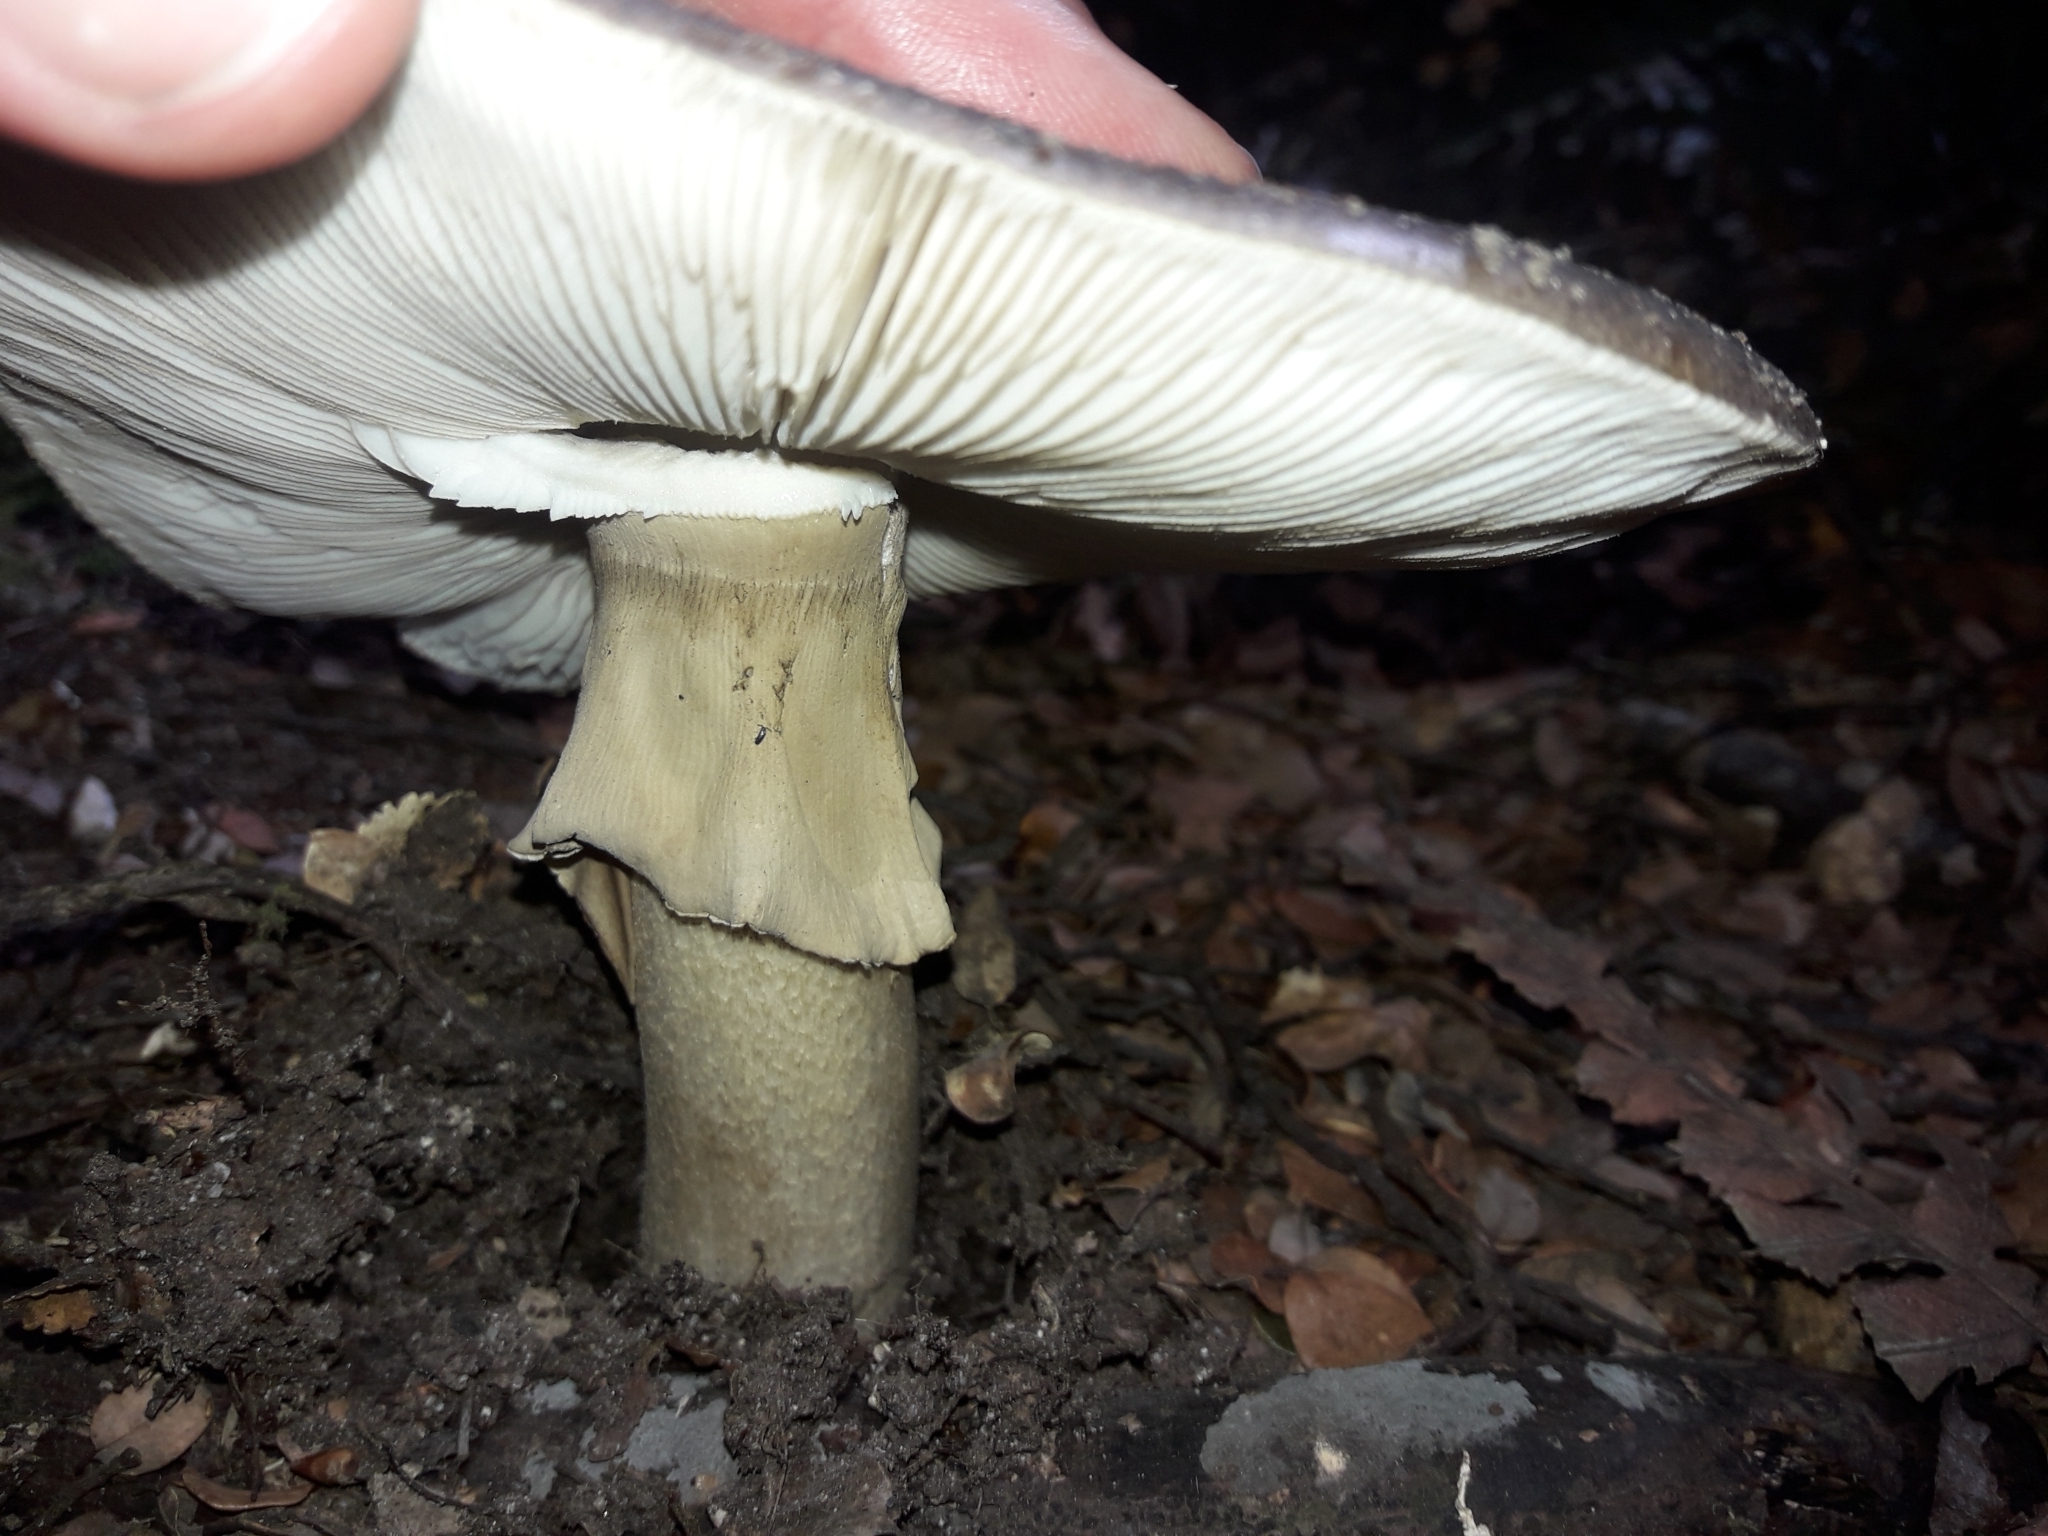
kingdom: Fungi
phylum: Basidiomycota
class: Agaricomycetes
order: Agaricales
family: Amanitaceae
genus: Amanita
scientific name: Amanita nothofagi
